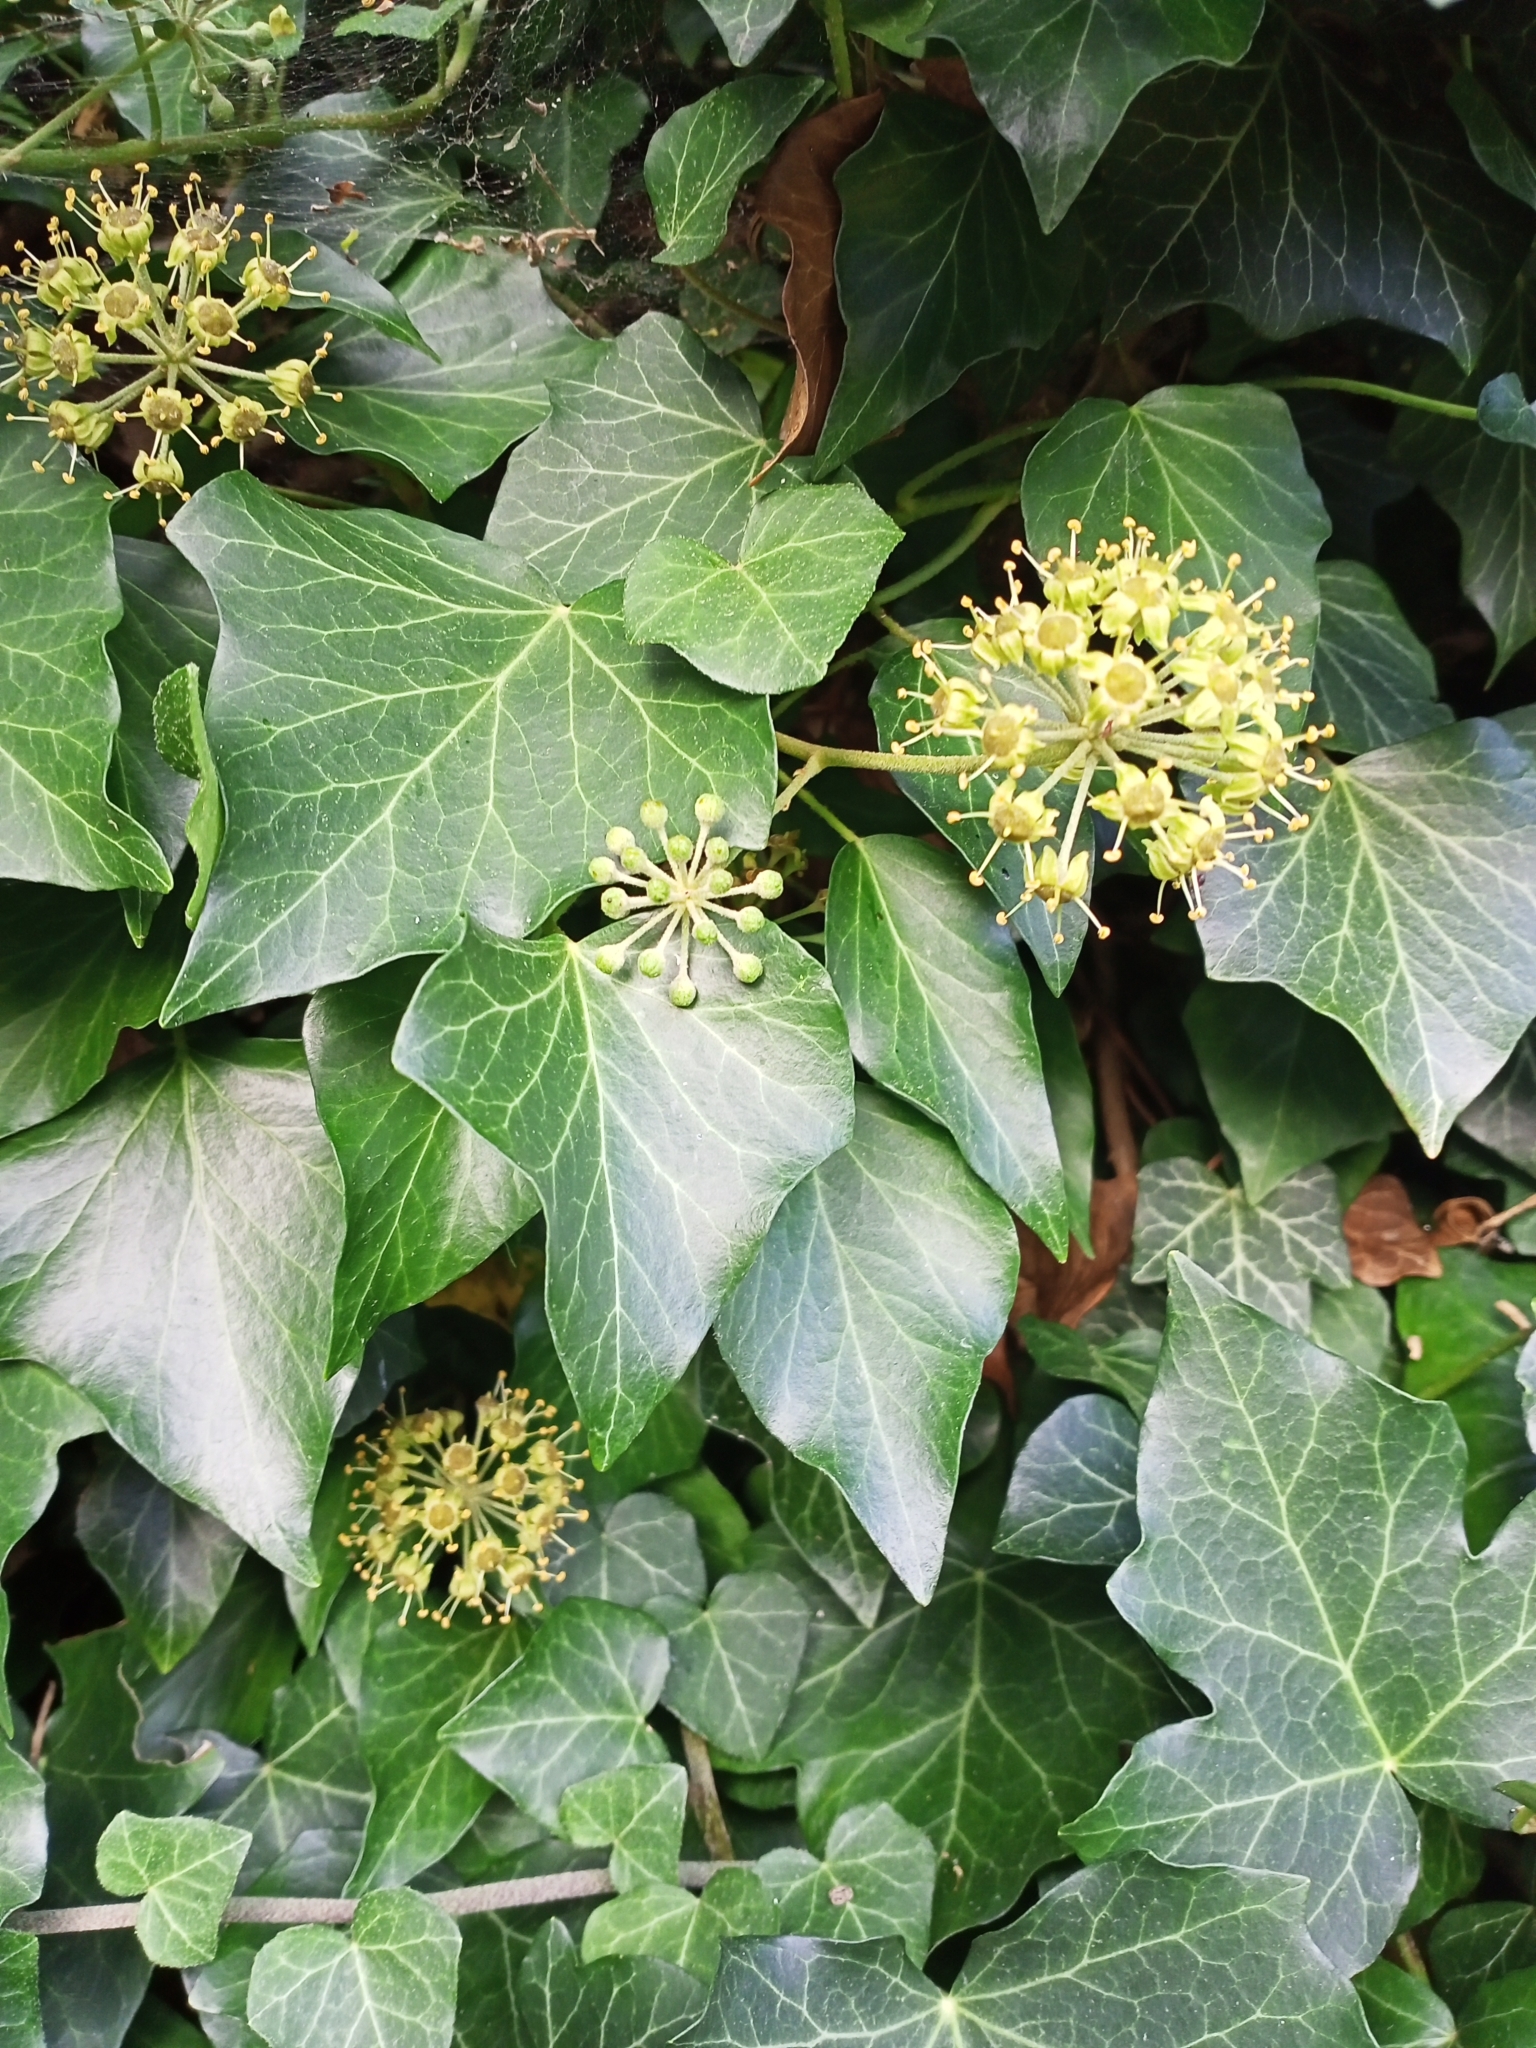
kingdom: Plantae
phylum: Tracheophyta
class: Magnoliopsida
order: Apiales
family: Araliaceae
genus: Hedera
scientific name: Hedera helix
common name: Ivy
